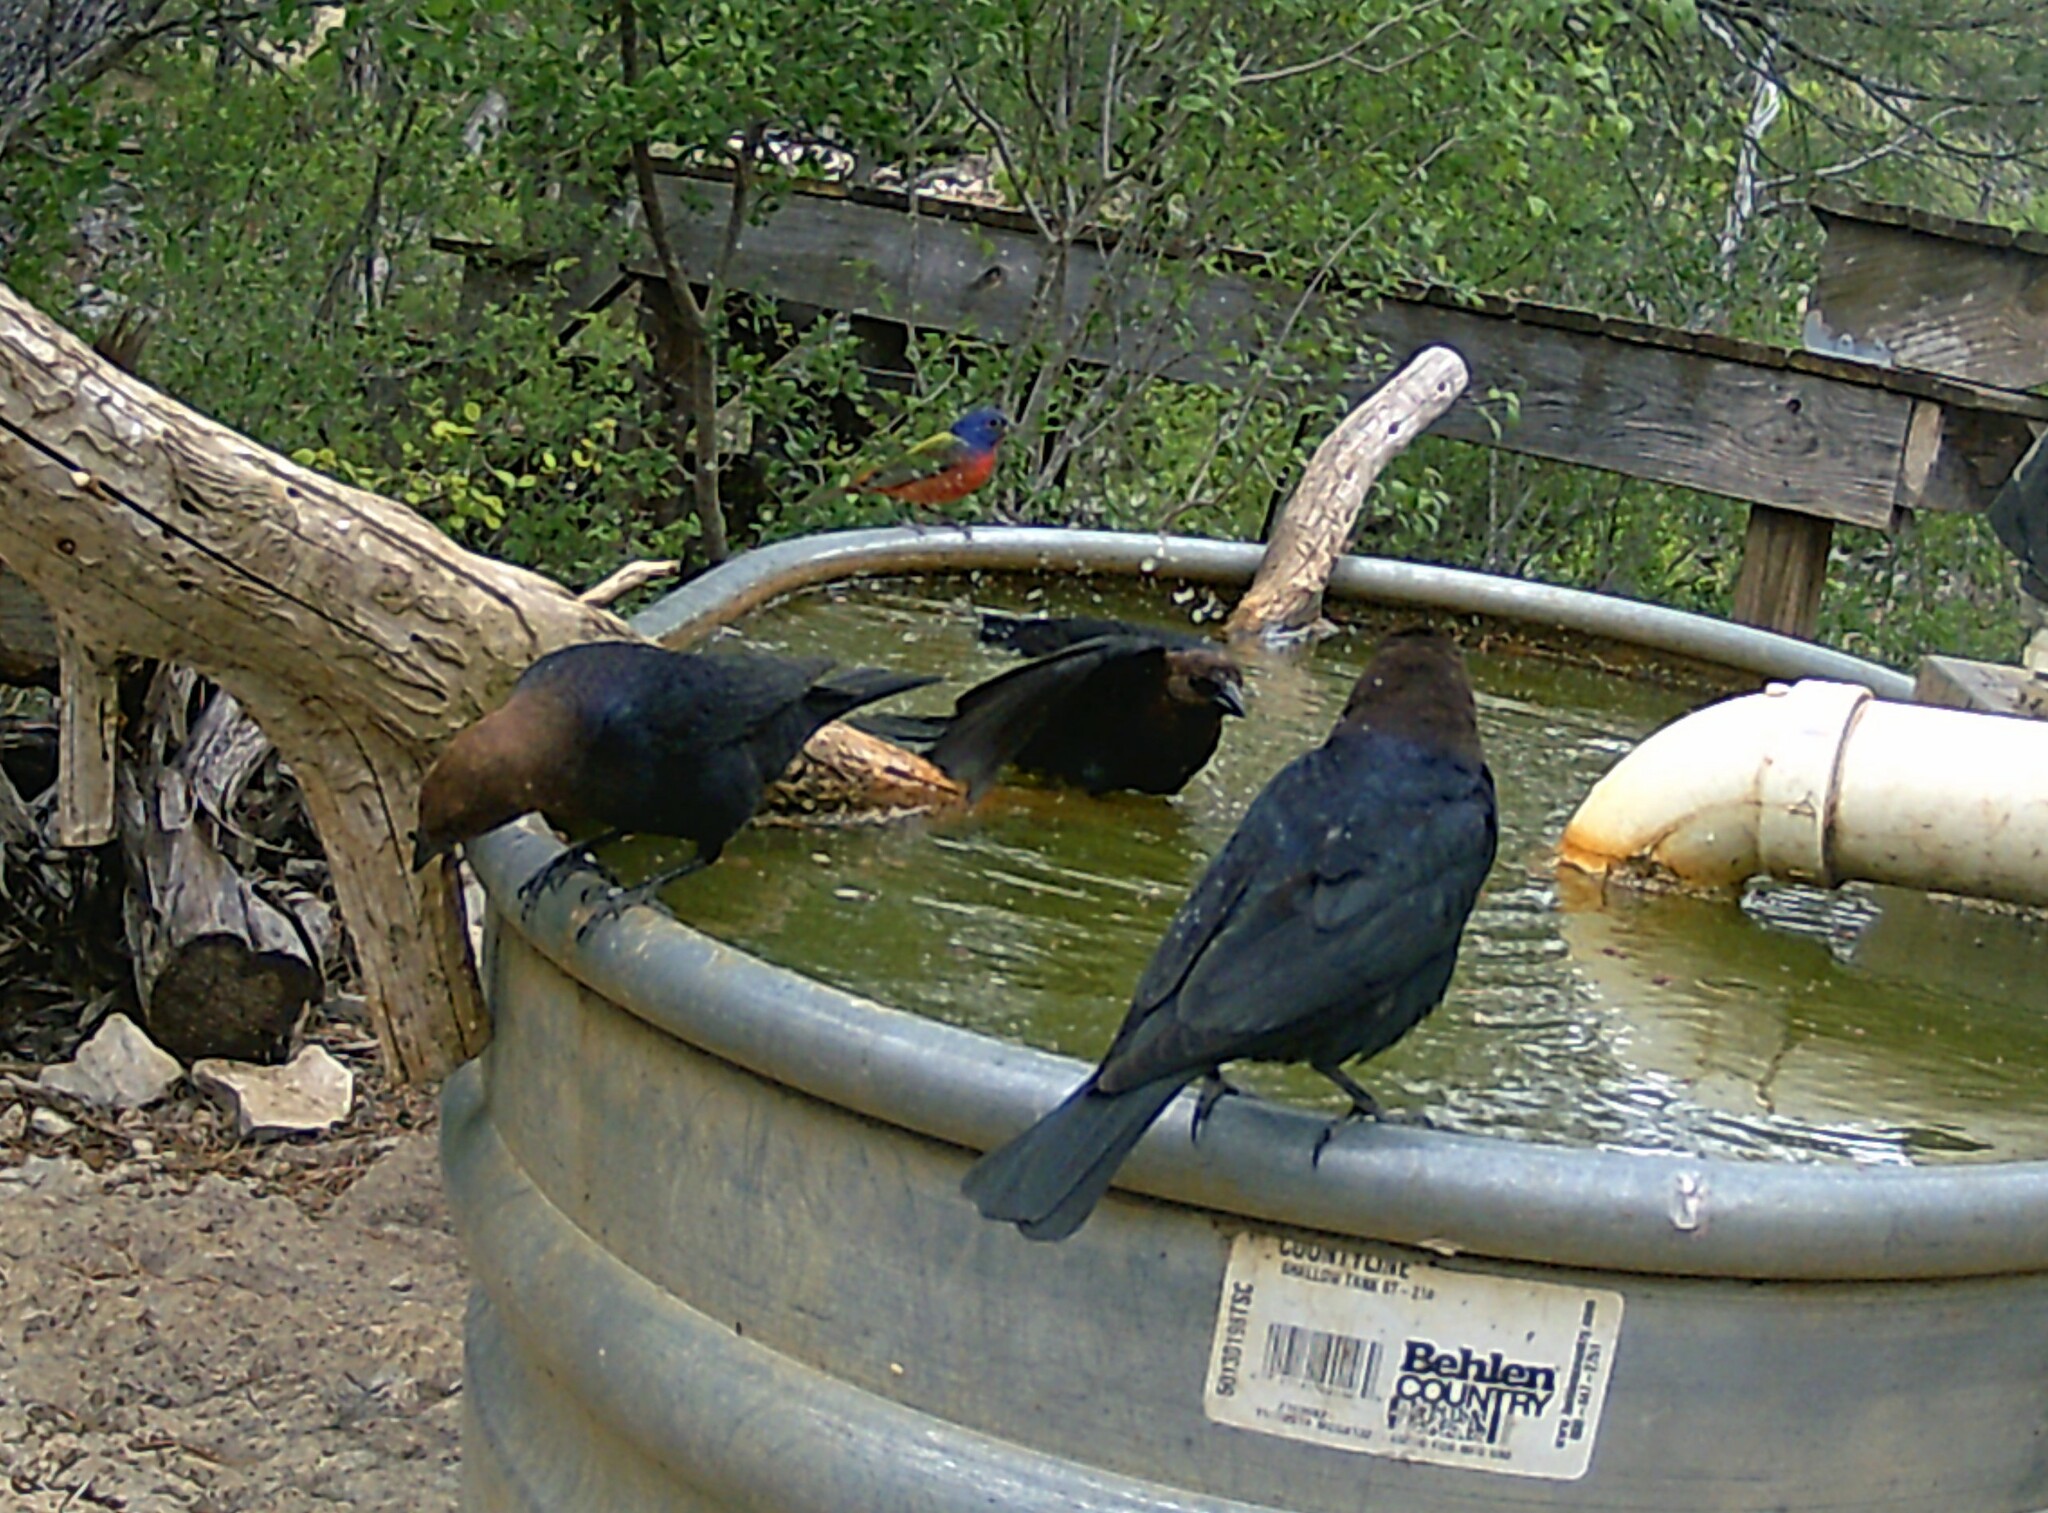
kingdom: Animalia
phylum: Chordata
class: Aves
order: Passeriformes
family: Icteridae
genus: Molothrus
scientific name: Molothrus ater
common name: Brown-headed cowbird
